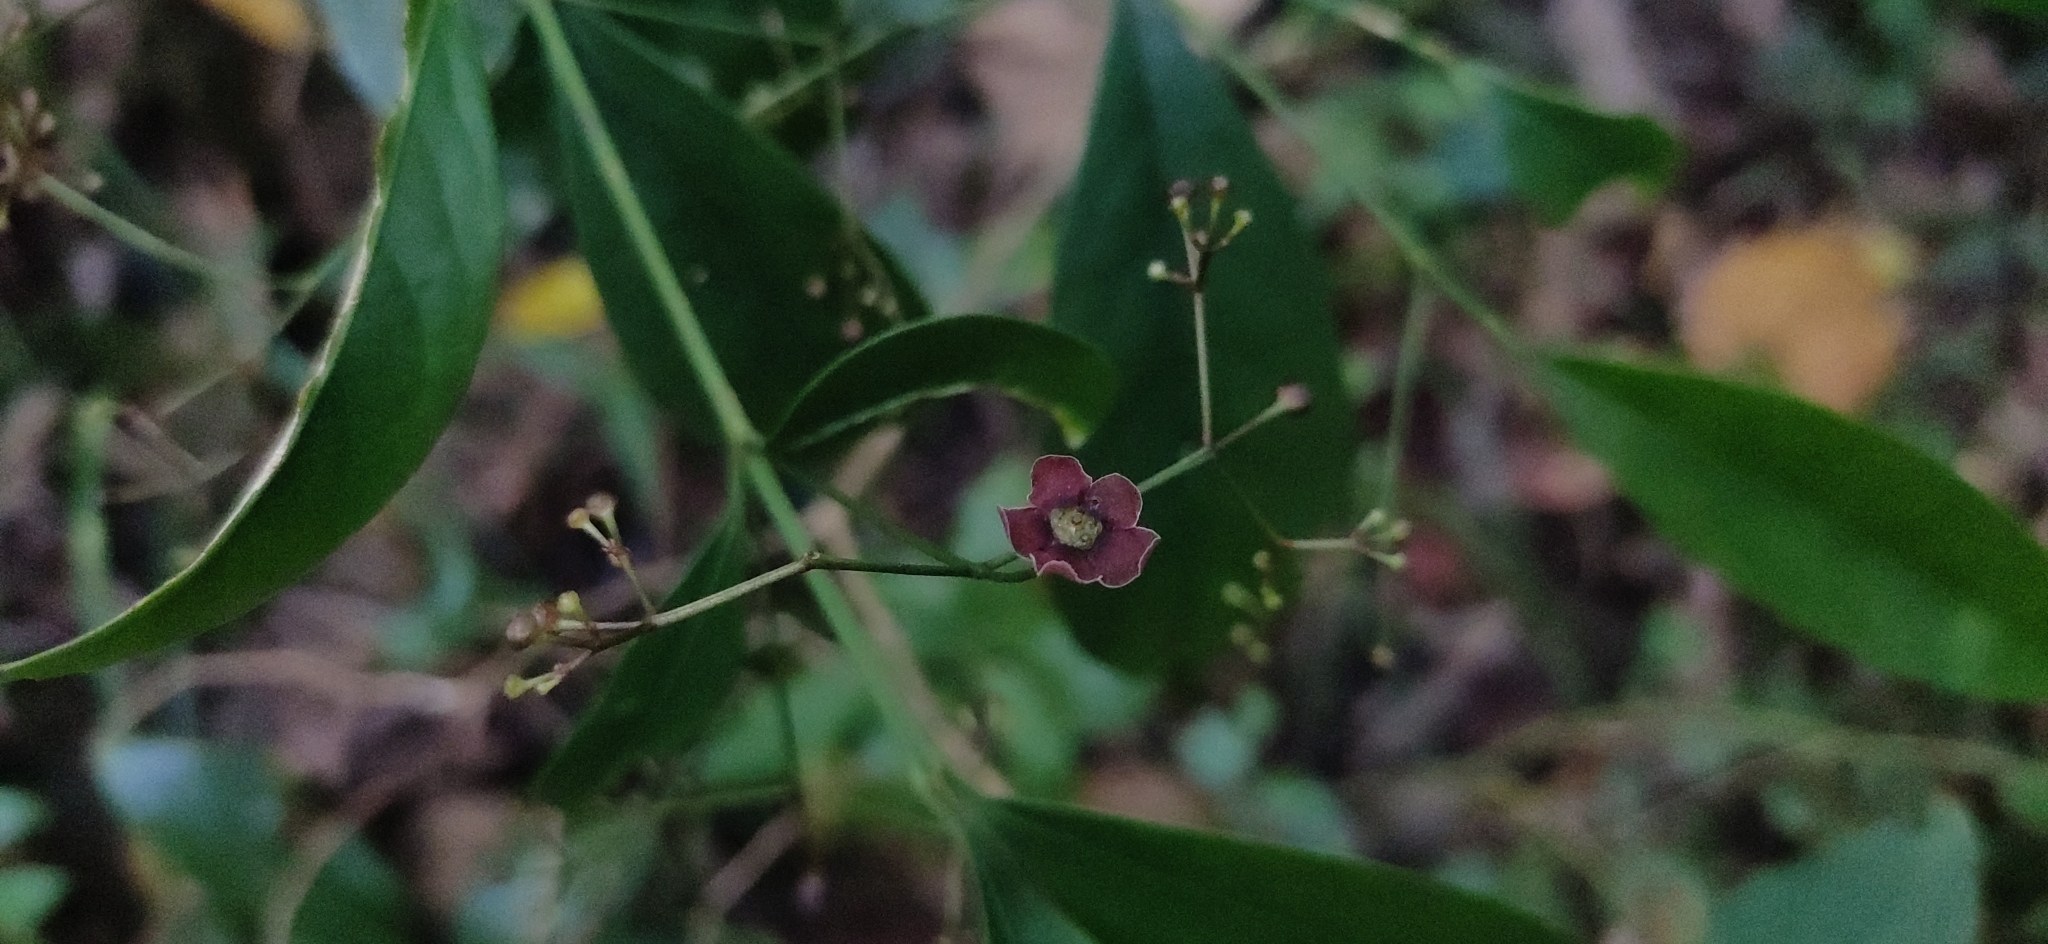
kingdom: Plantae
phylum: Tracheophyta
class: Magnoliopsida
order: Celastrales
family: Celastraceae
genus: Euonymus
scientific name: Euonymus crenulatus
